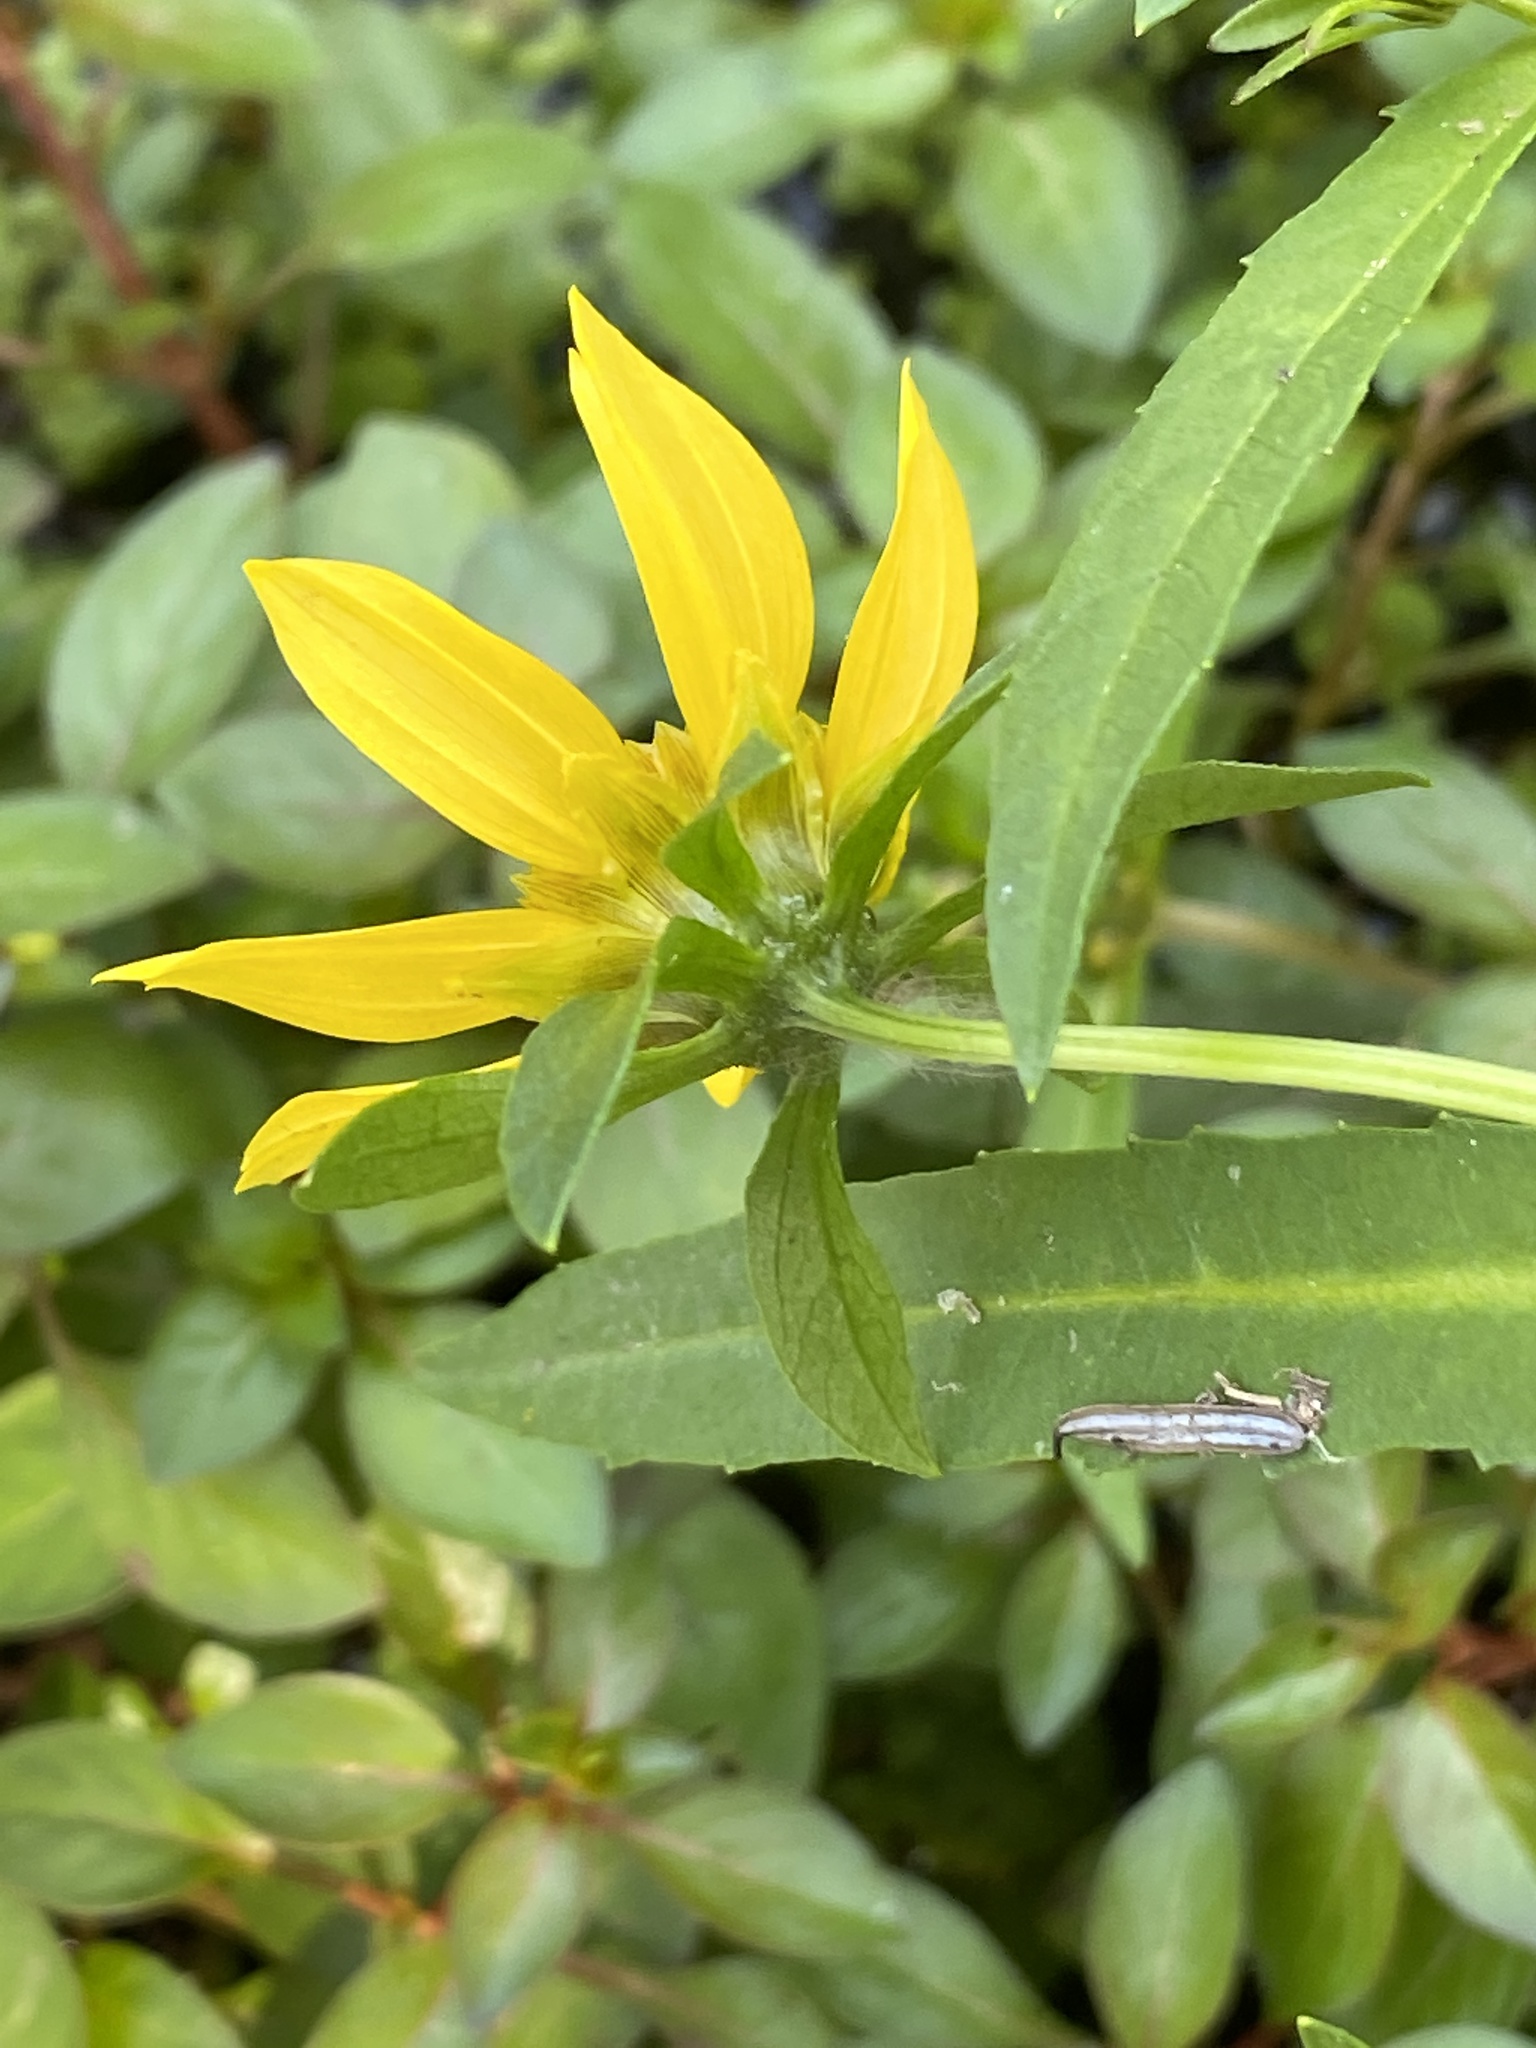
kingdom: Plantae
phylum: Tracheophyta
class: Magnoliopsida
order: Asterales
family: Asteraceae
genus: Bidens
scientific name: Bidens cernua
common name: Nodding bur-marigold
